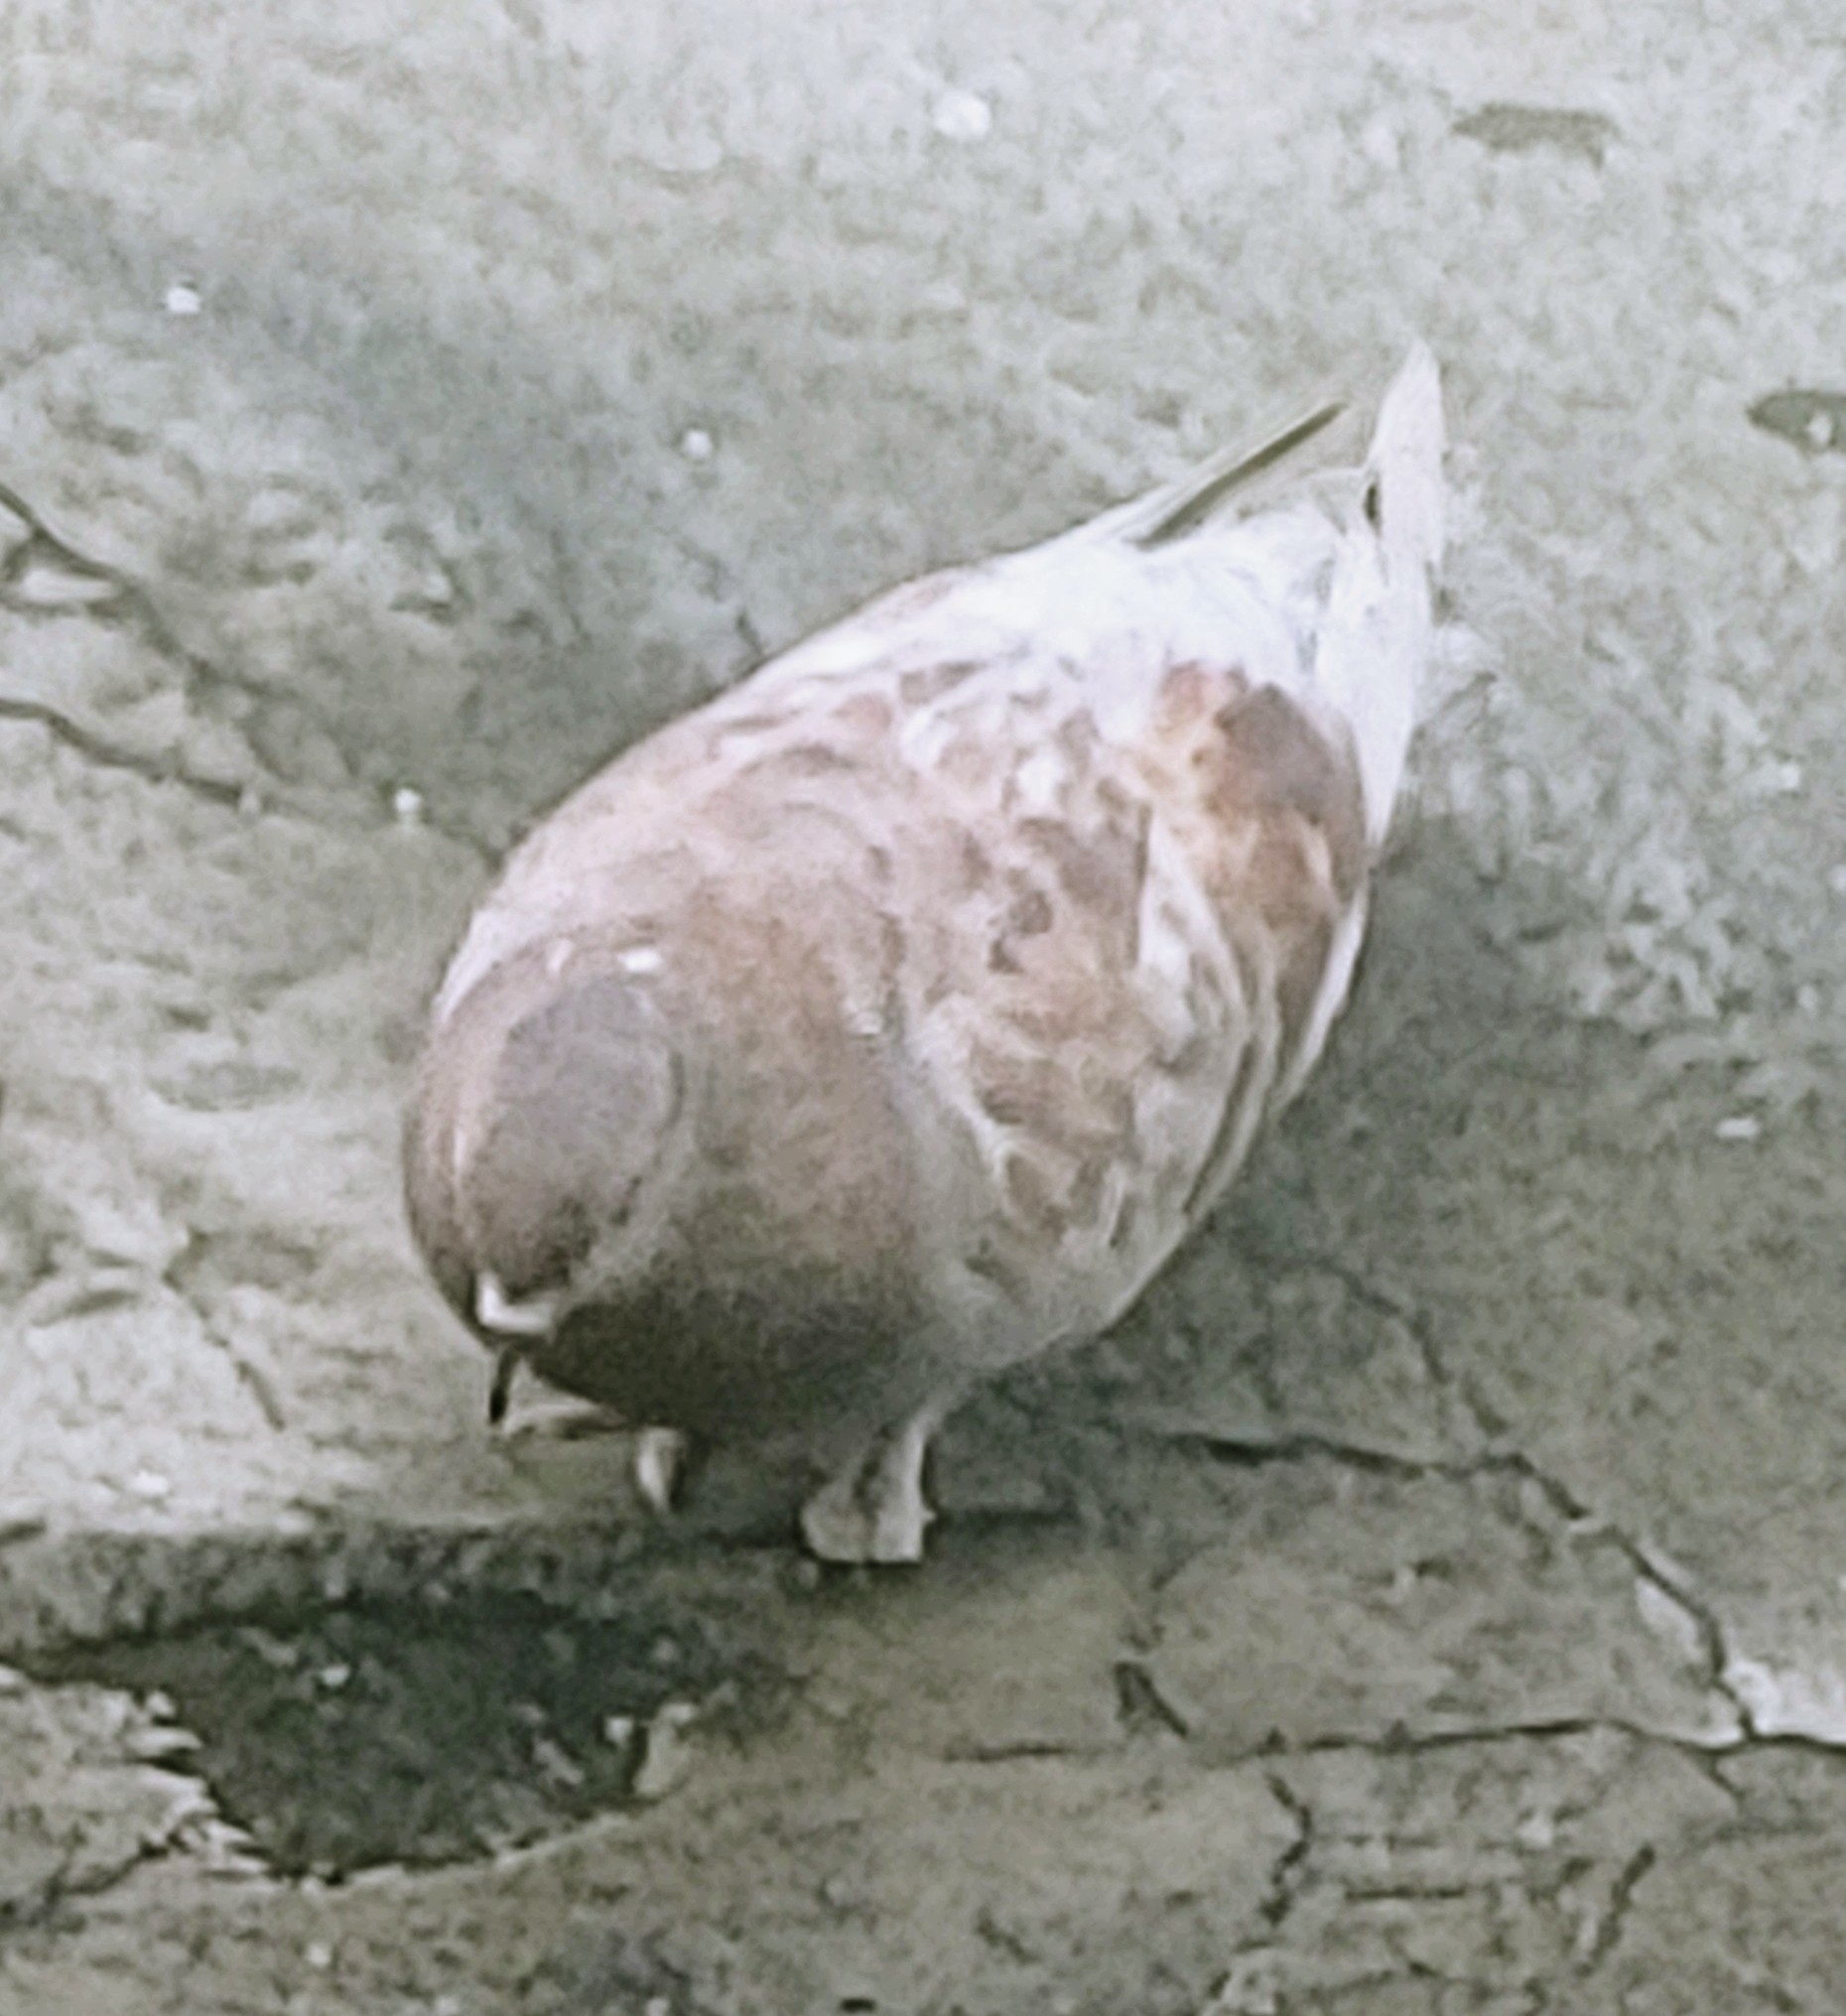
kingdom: Animalia
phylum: Chordata
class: Aves
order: Columbiformes
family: Columbidae
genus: Columba
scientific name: Columba livia
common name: Rock pigeon
